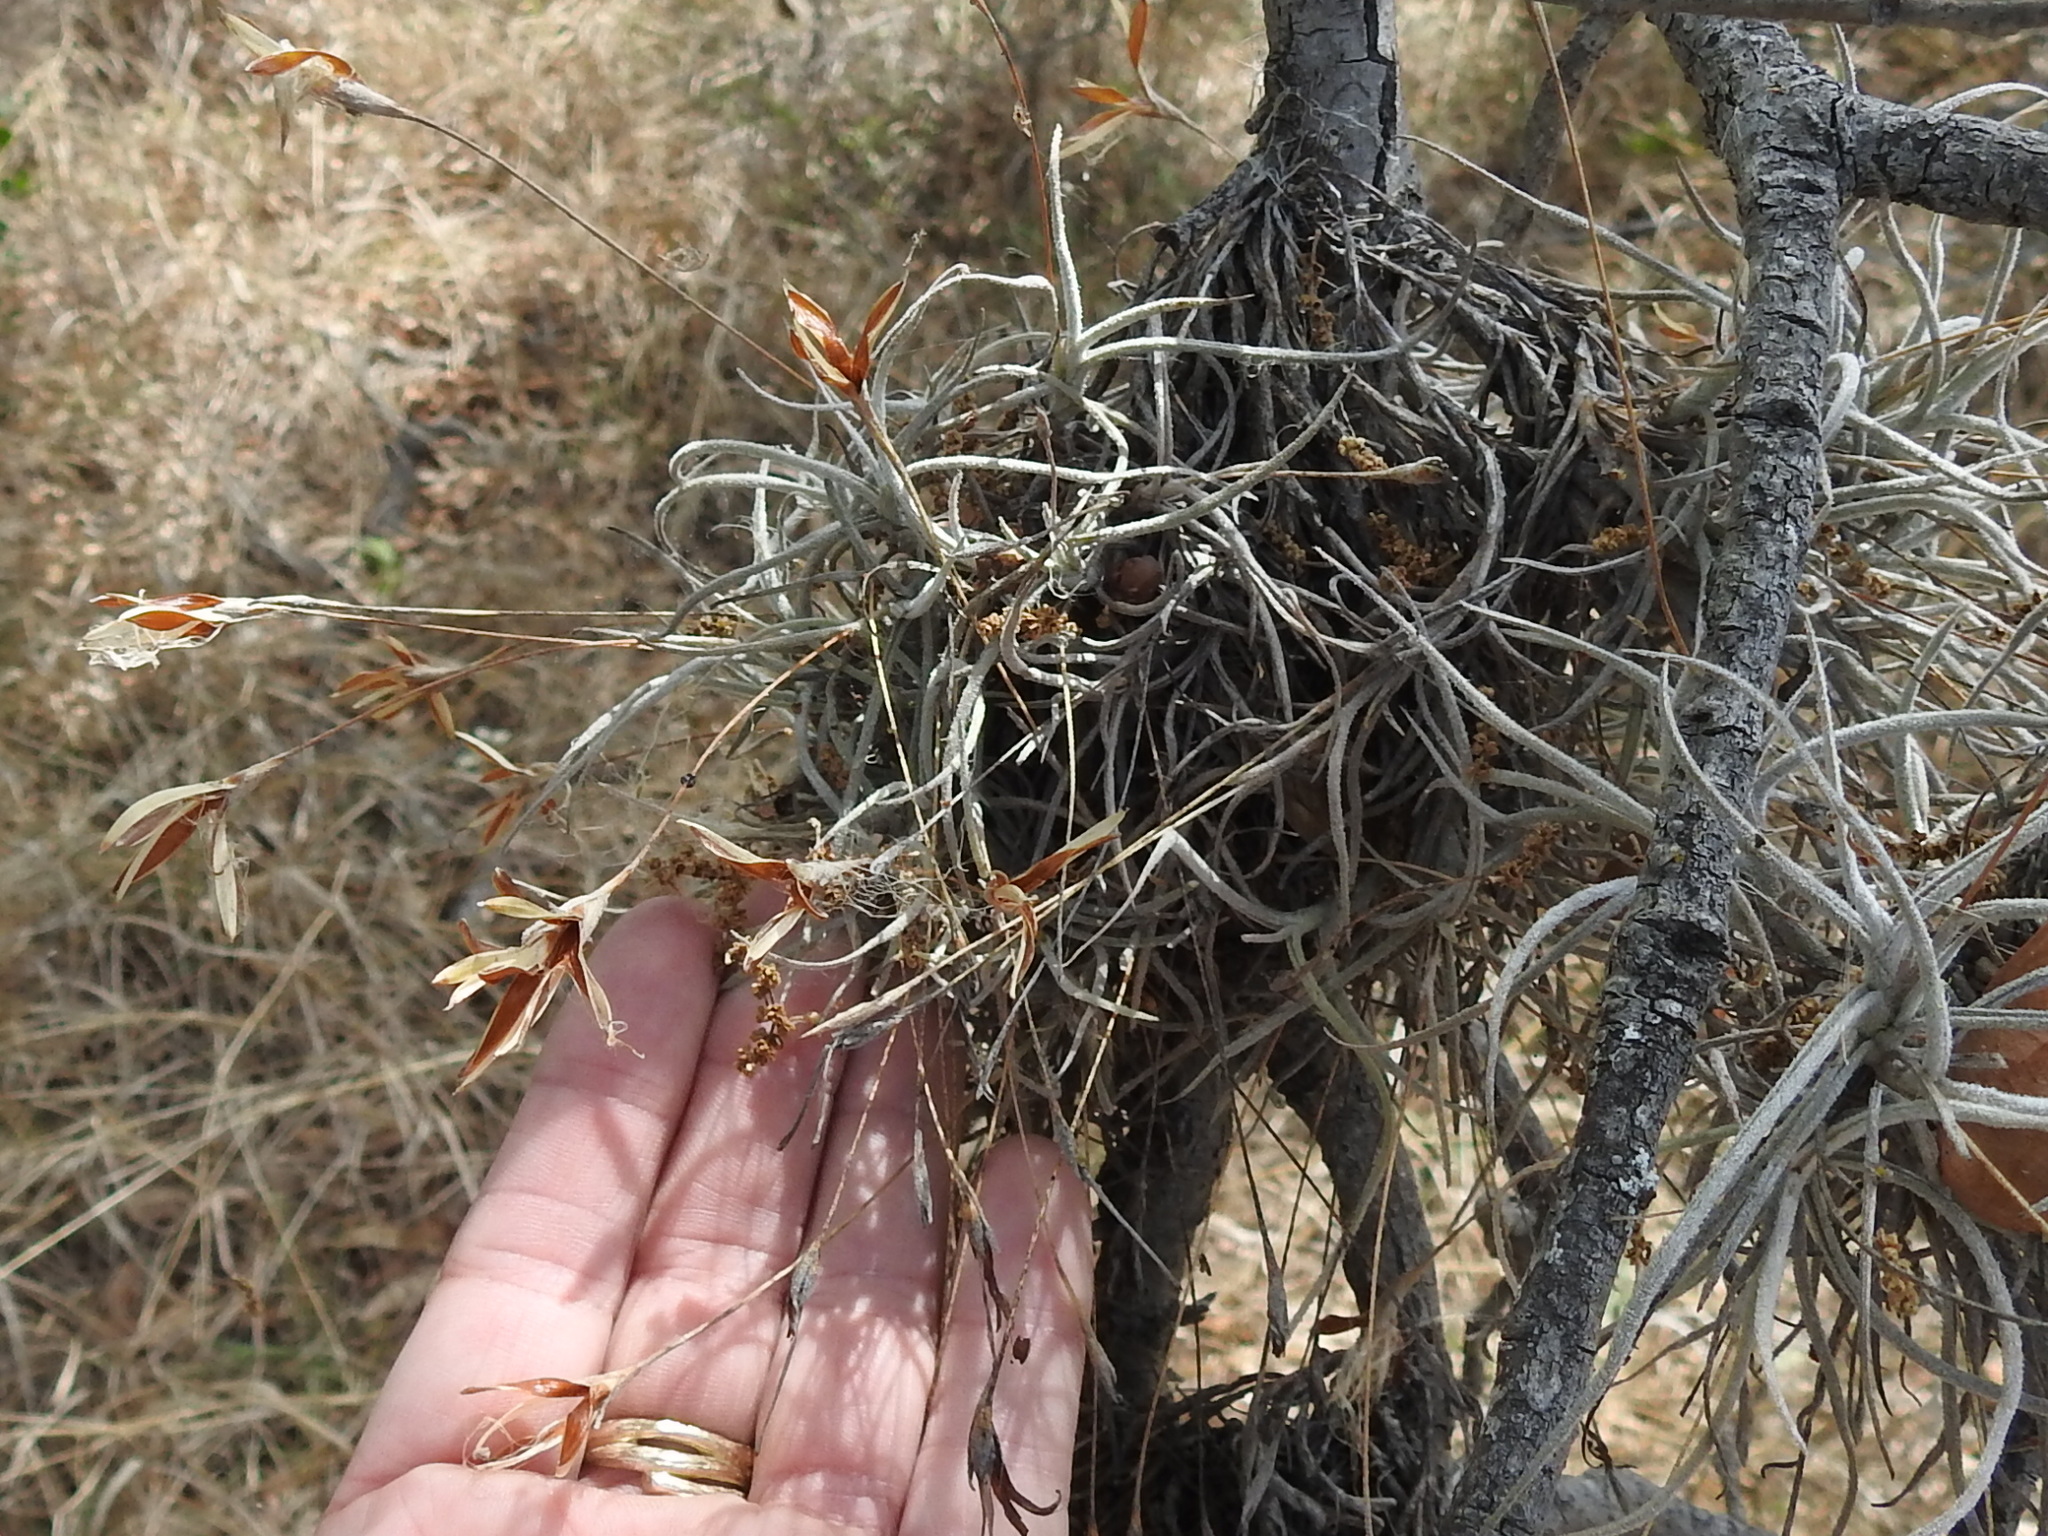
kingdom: Plantae
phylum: Tracheophyta
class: Liliopsida
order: Poales
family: Bromeliaceae
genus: Tillandsia
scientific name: Tillandsia recurvata
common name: Small ballmoss
